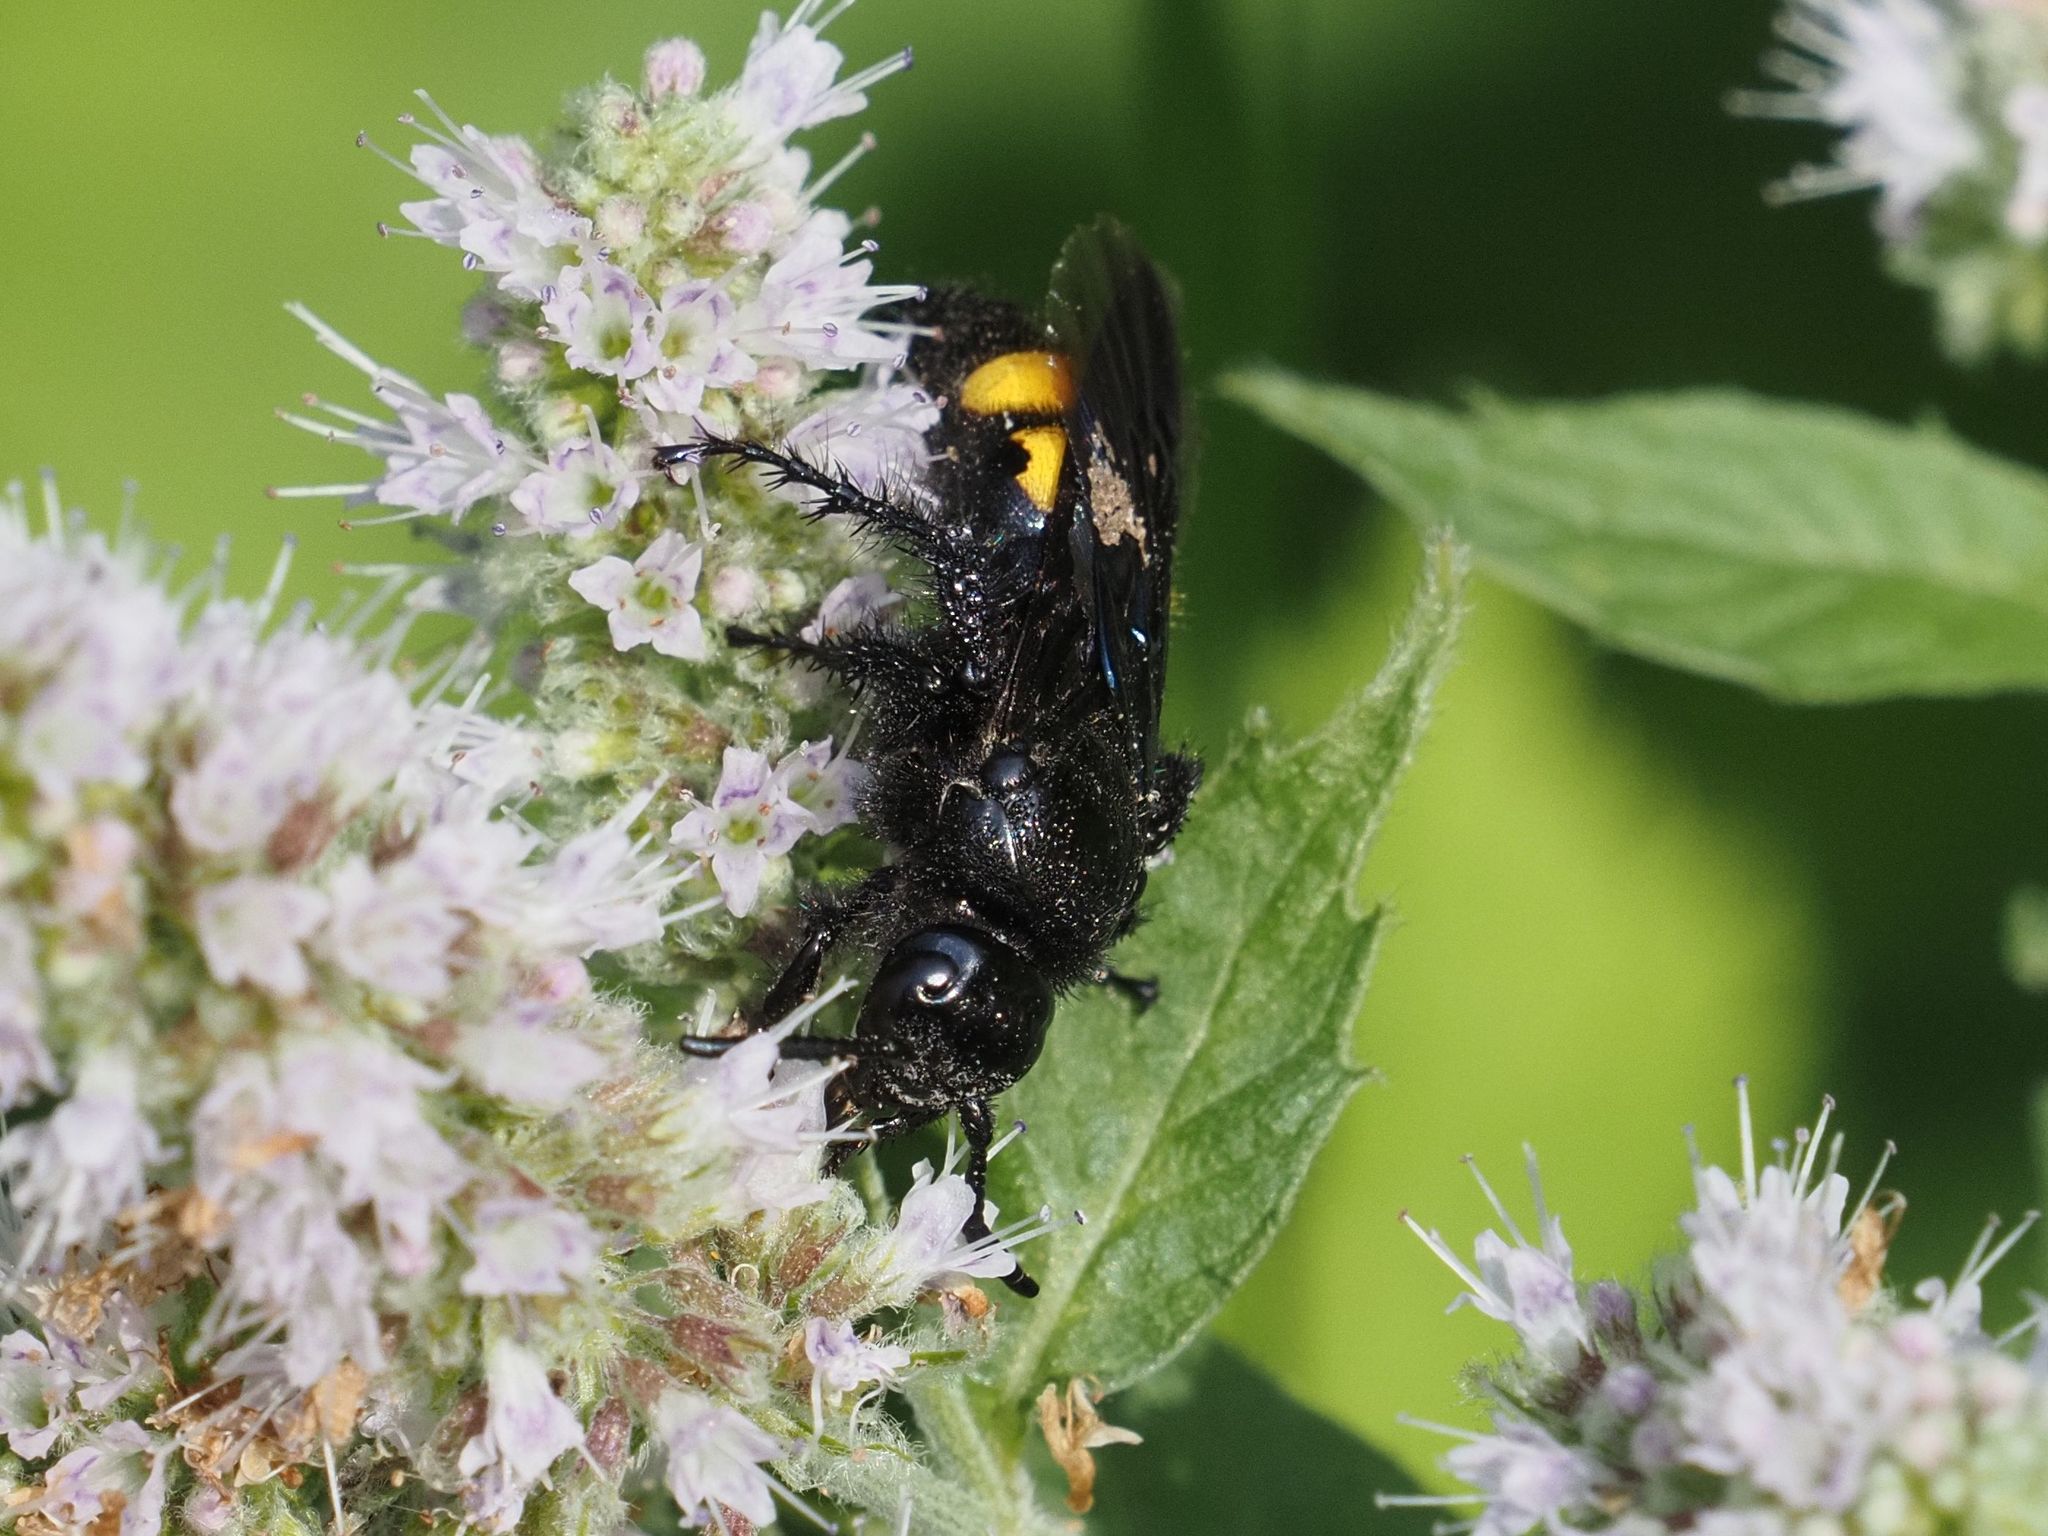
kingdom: Animalia
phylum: Arthropoda
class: Insecta
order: Hymenoptera
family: Scoliidae
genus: Scolia
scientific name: Scolia hirta
